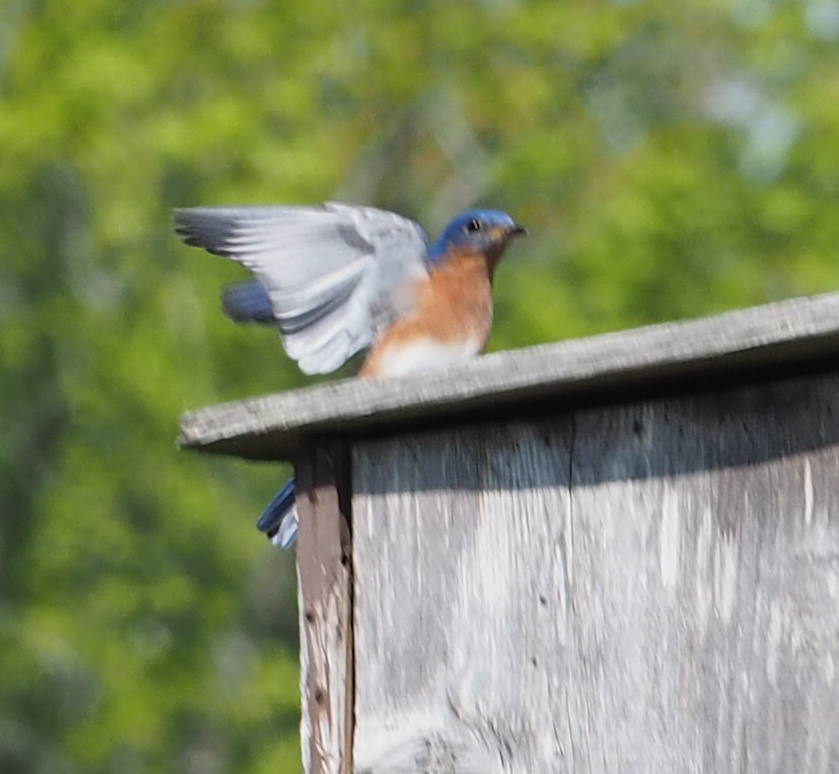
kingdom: Animalia
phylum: Chordata
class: Aves
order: Passeriformes
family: Turdidae
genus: Sialia
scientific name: Sialia sialis
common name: Eastern bluebird
